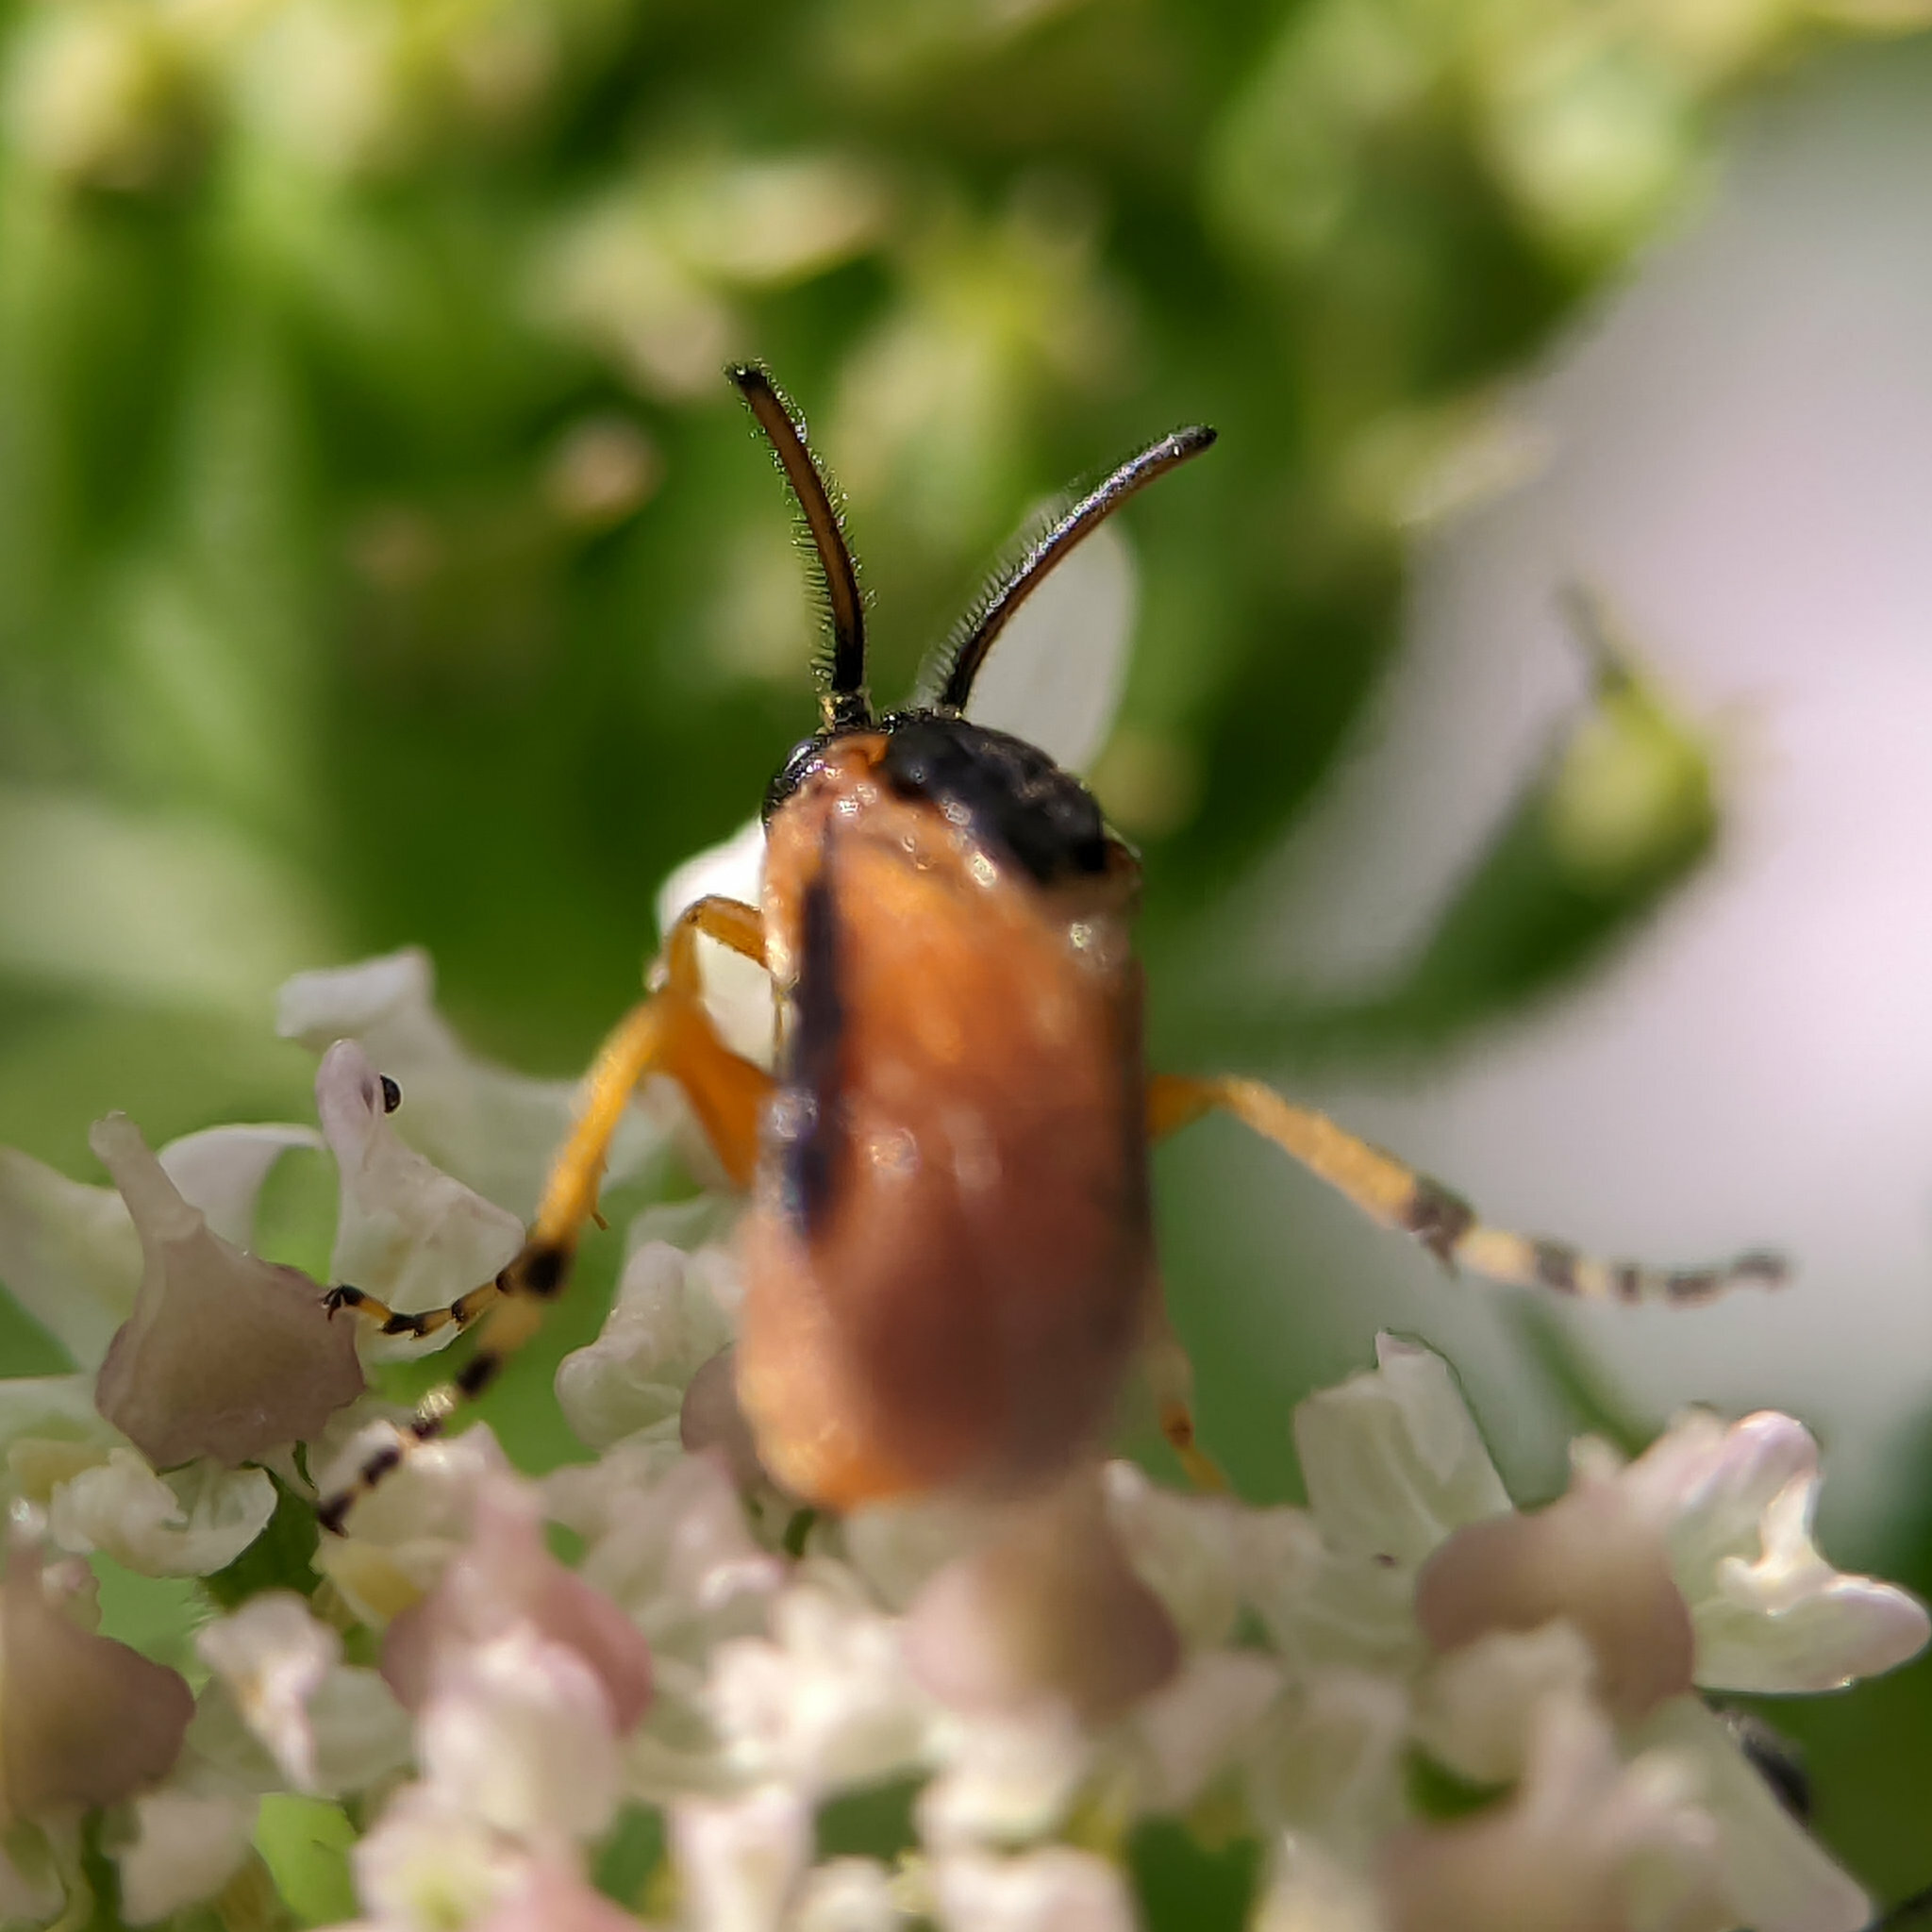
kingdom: Animalia
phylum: Arthropoda
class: Insecta
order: Hymenoptera
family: Argidae
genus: Arge
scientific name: Arge ochropus
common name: Argid sawfly
